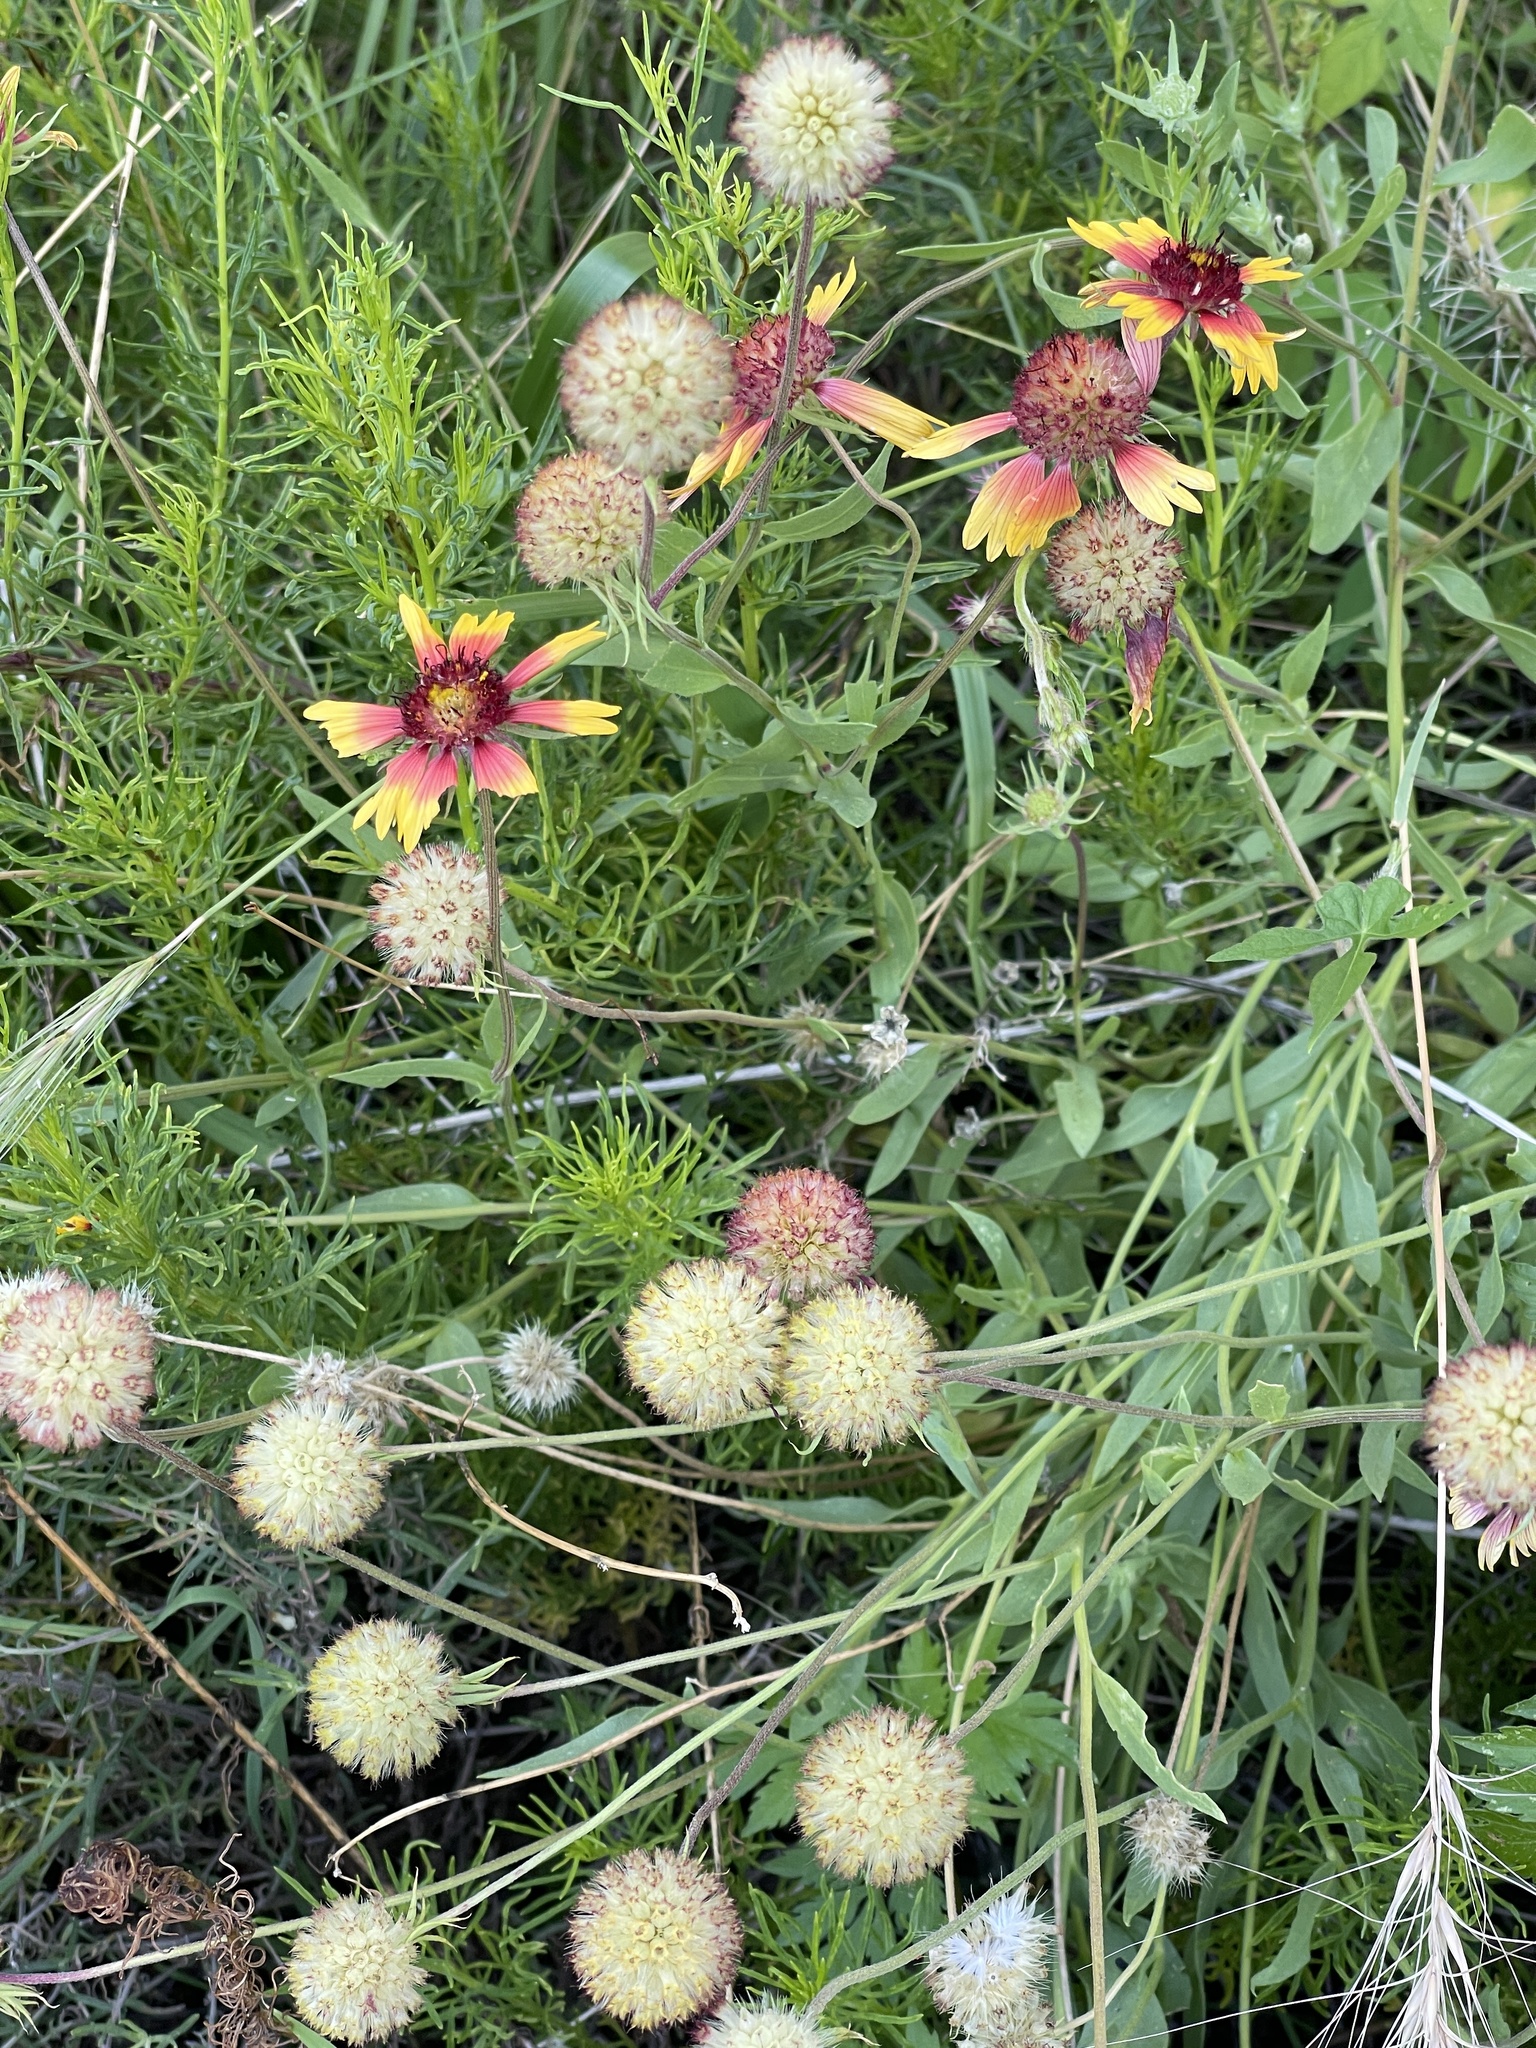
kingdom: Plantae
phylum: Tracheophyta
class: Magnoliopsida
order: Asterales
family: Asteraceae
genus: Gaillardia
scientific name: Gaillardia pulchella
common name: Firewheel
